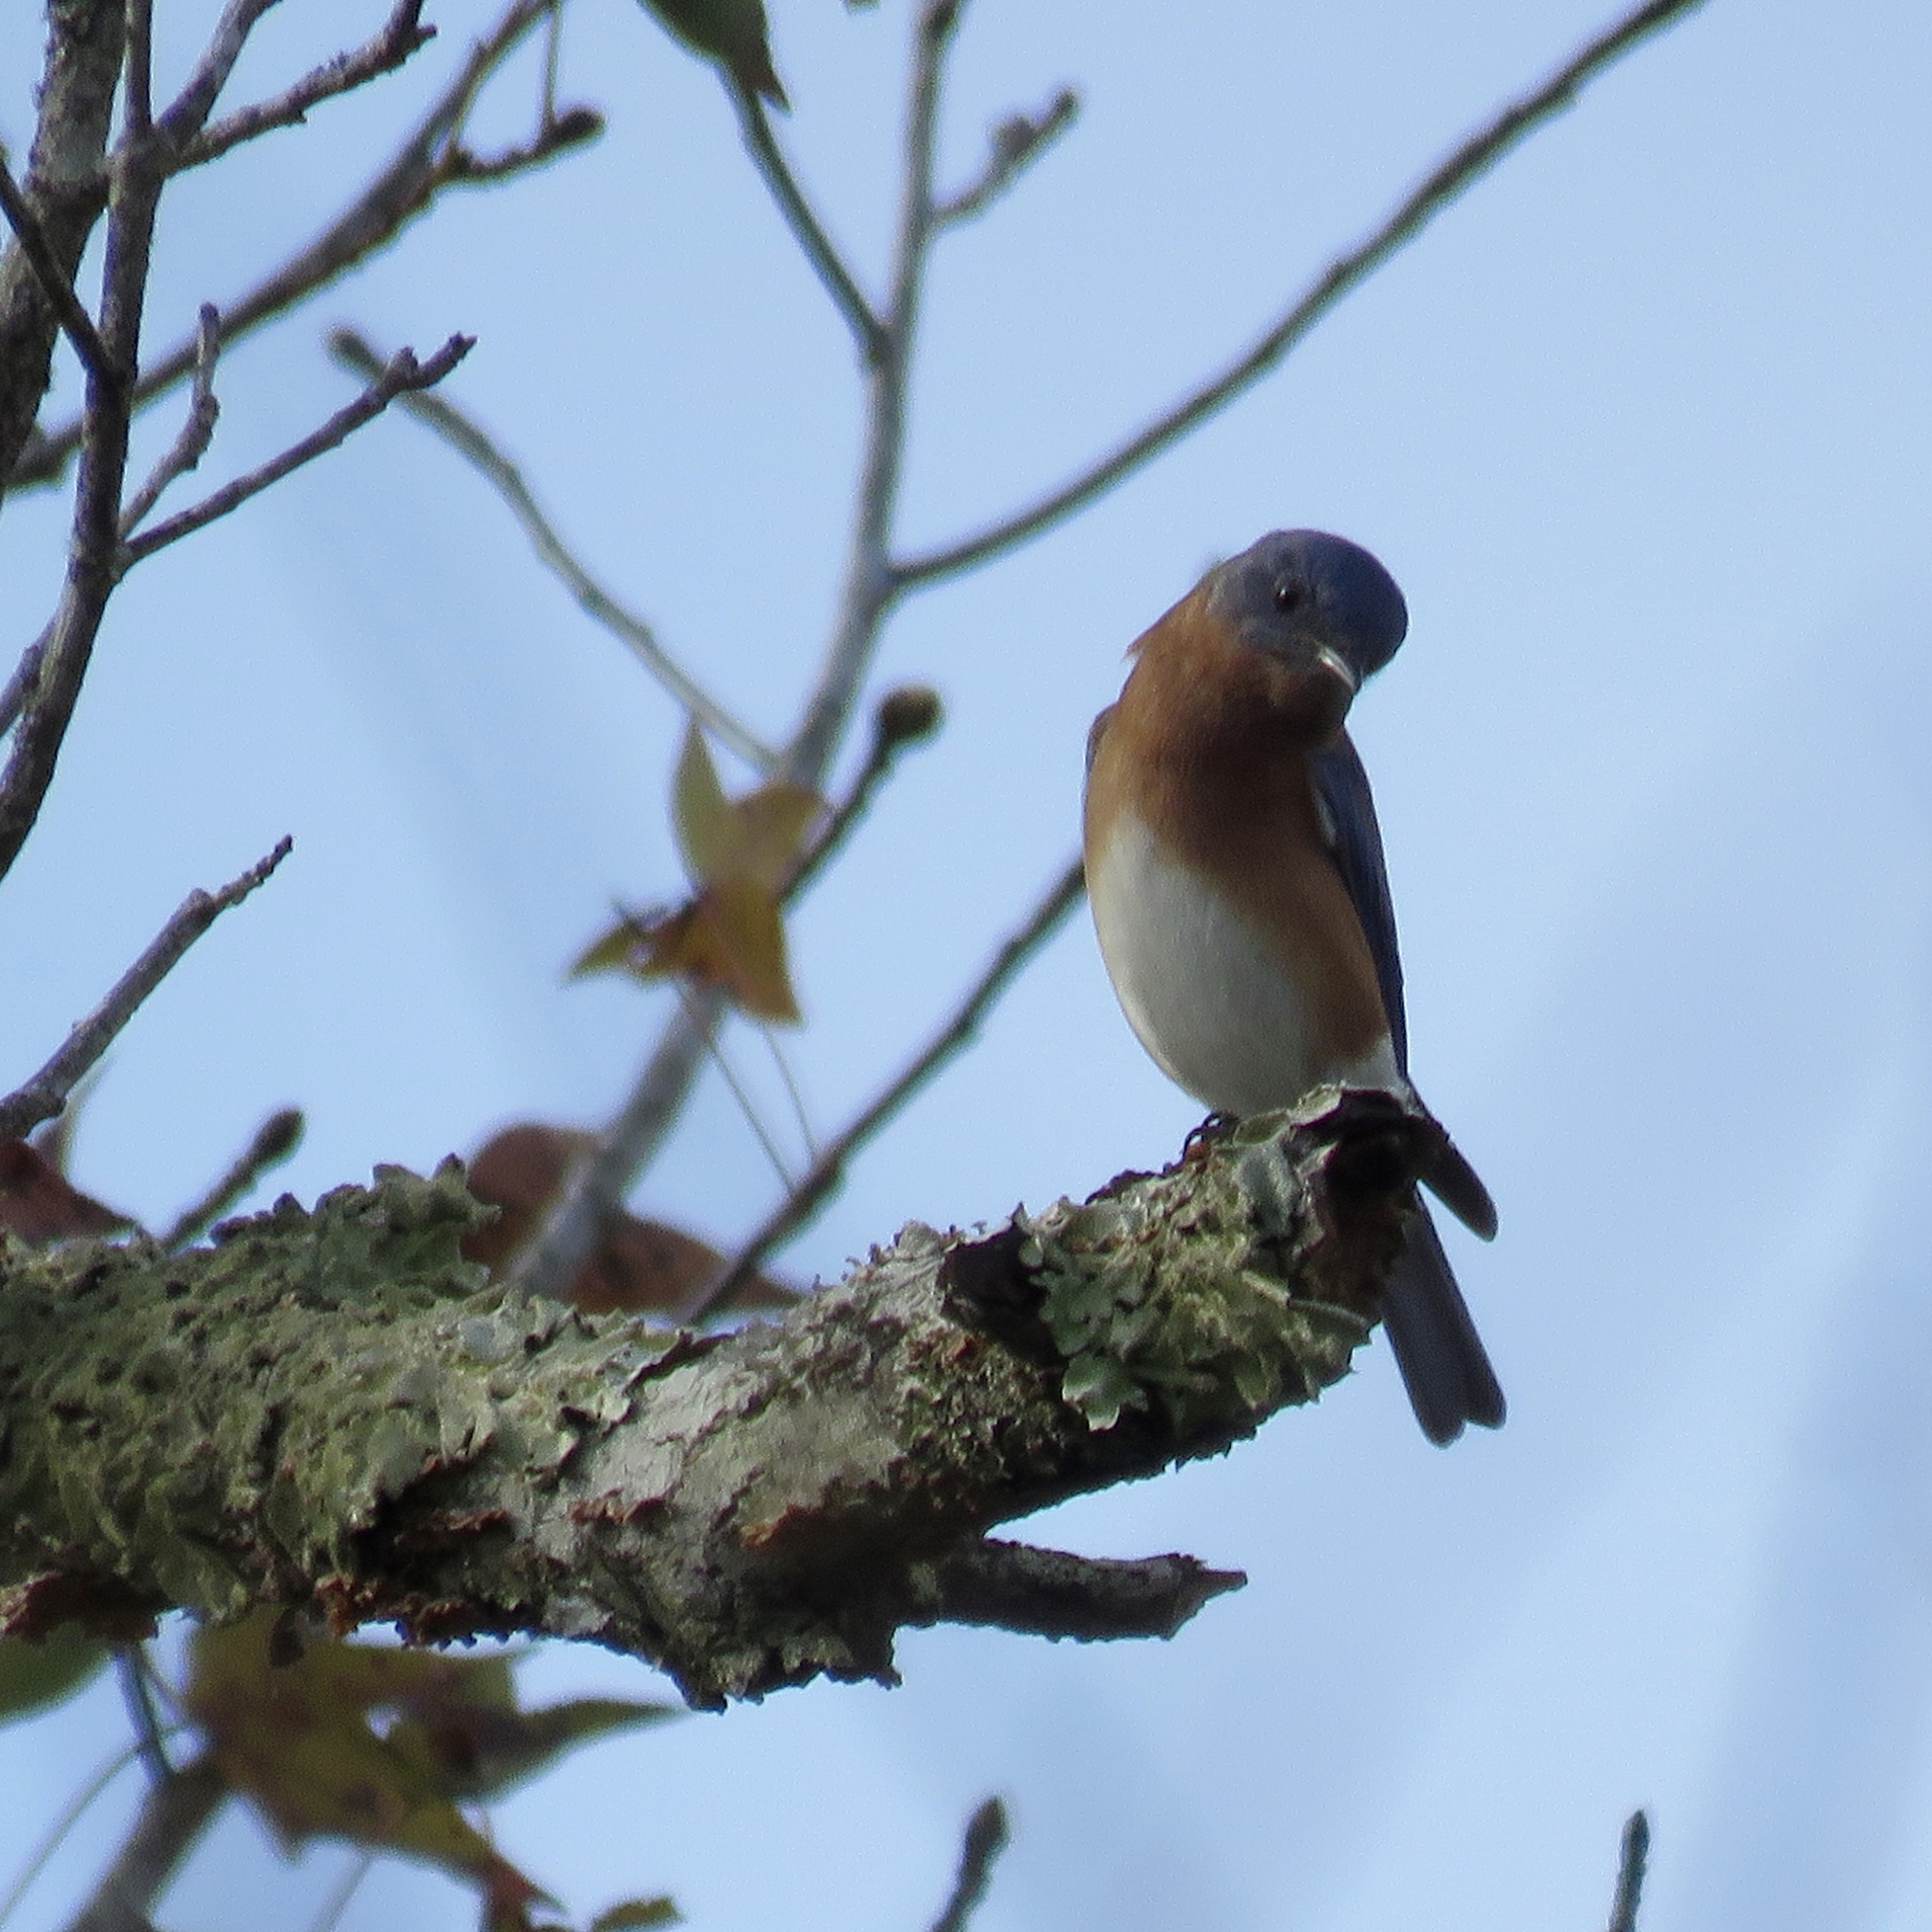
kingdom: Animalia
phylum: Chordata
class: Aves
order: Passeriformes
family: Turdidae
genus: Sialia
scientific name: Sialia sialis
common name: Eastern bluebird
